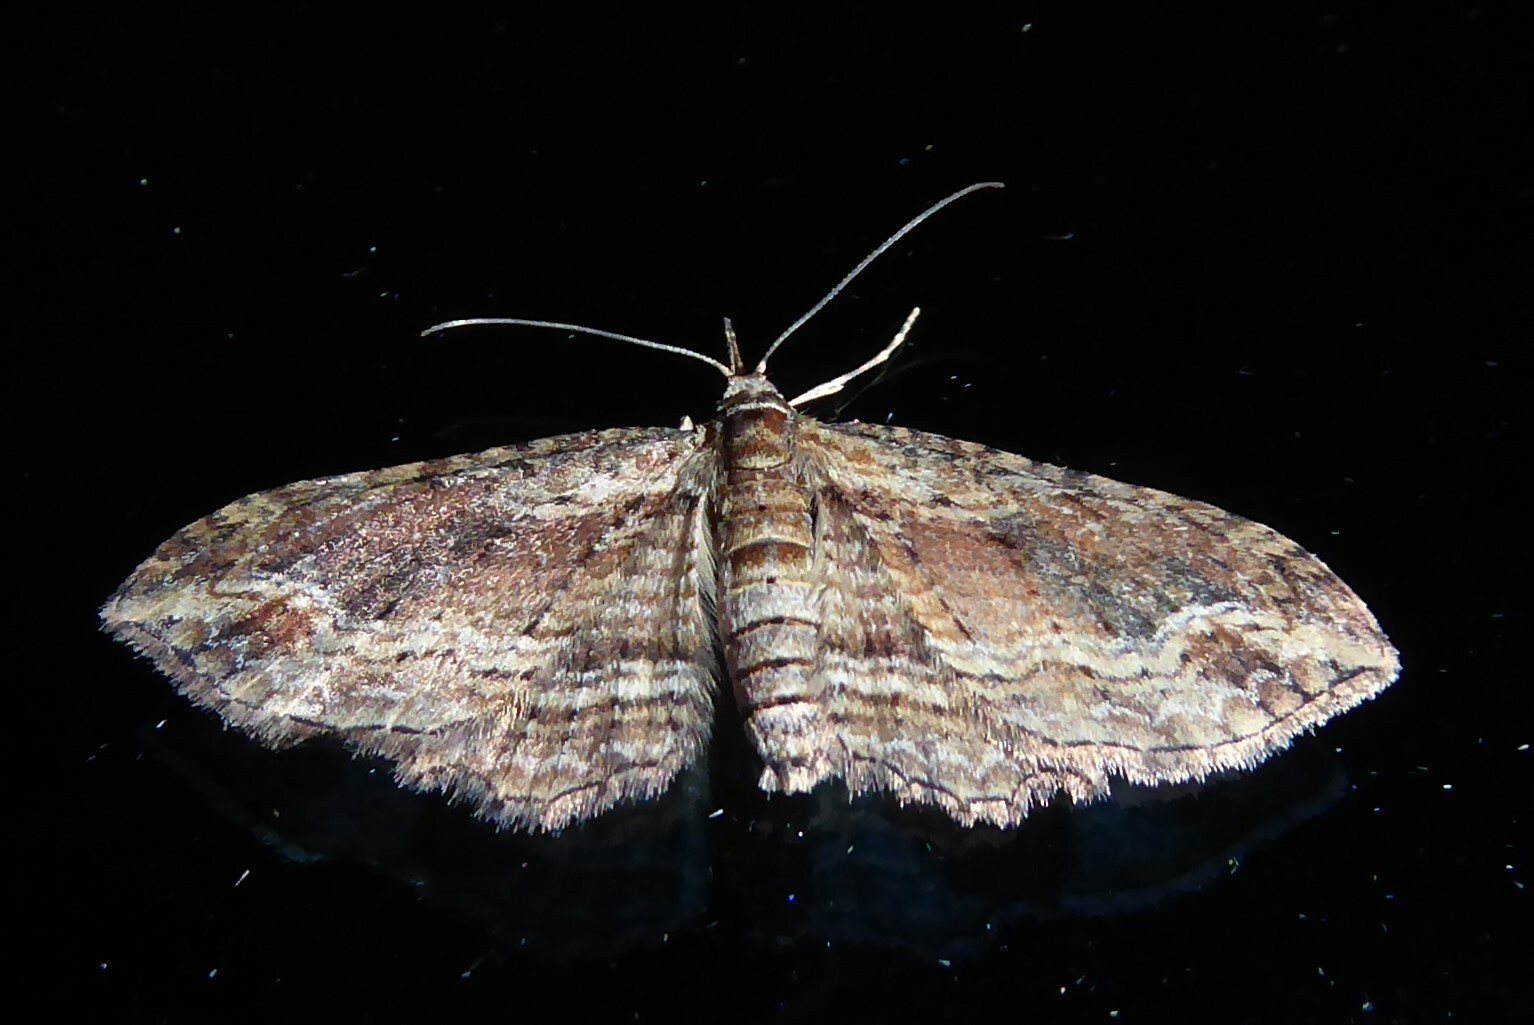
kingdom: Animalia
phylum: Arthropoda
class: Insecta
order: Lepidoptera
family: Geometridae
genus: Chloroclystis
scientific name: Chloroclystis filata
